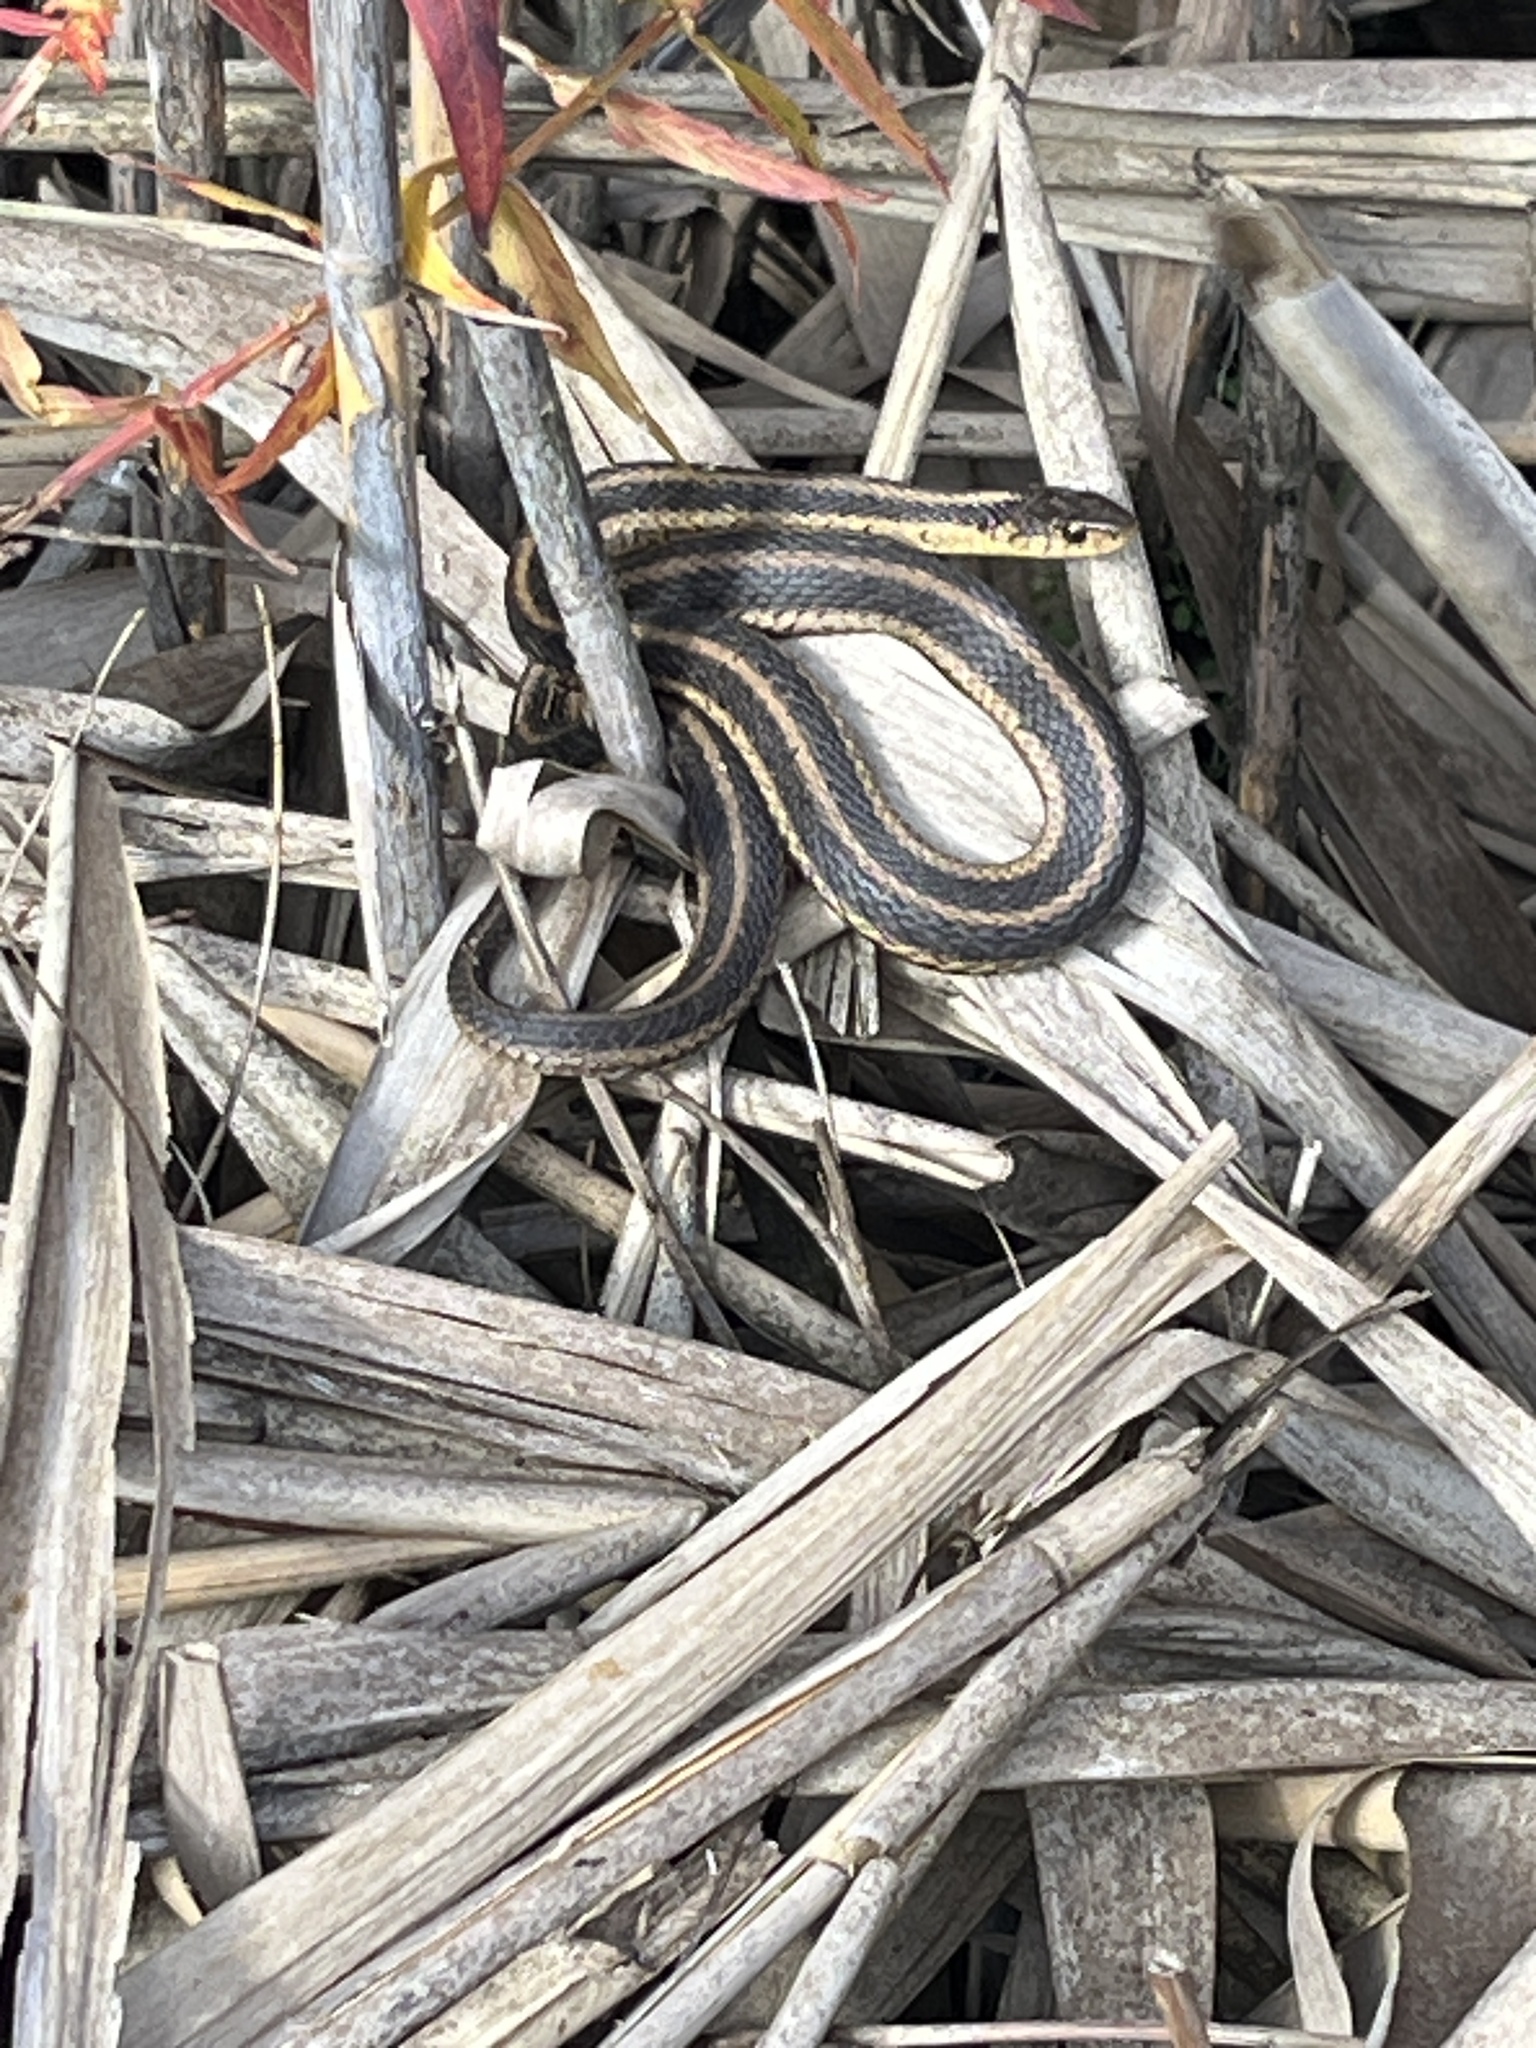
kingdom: Animalia
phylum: Chordata
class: Squamata
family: Colubridae
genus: Thamnophis
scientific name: Thamnophis sirtalis
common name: Common garter snake
